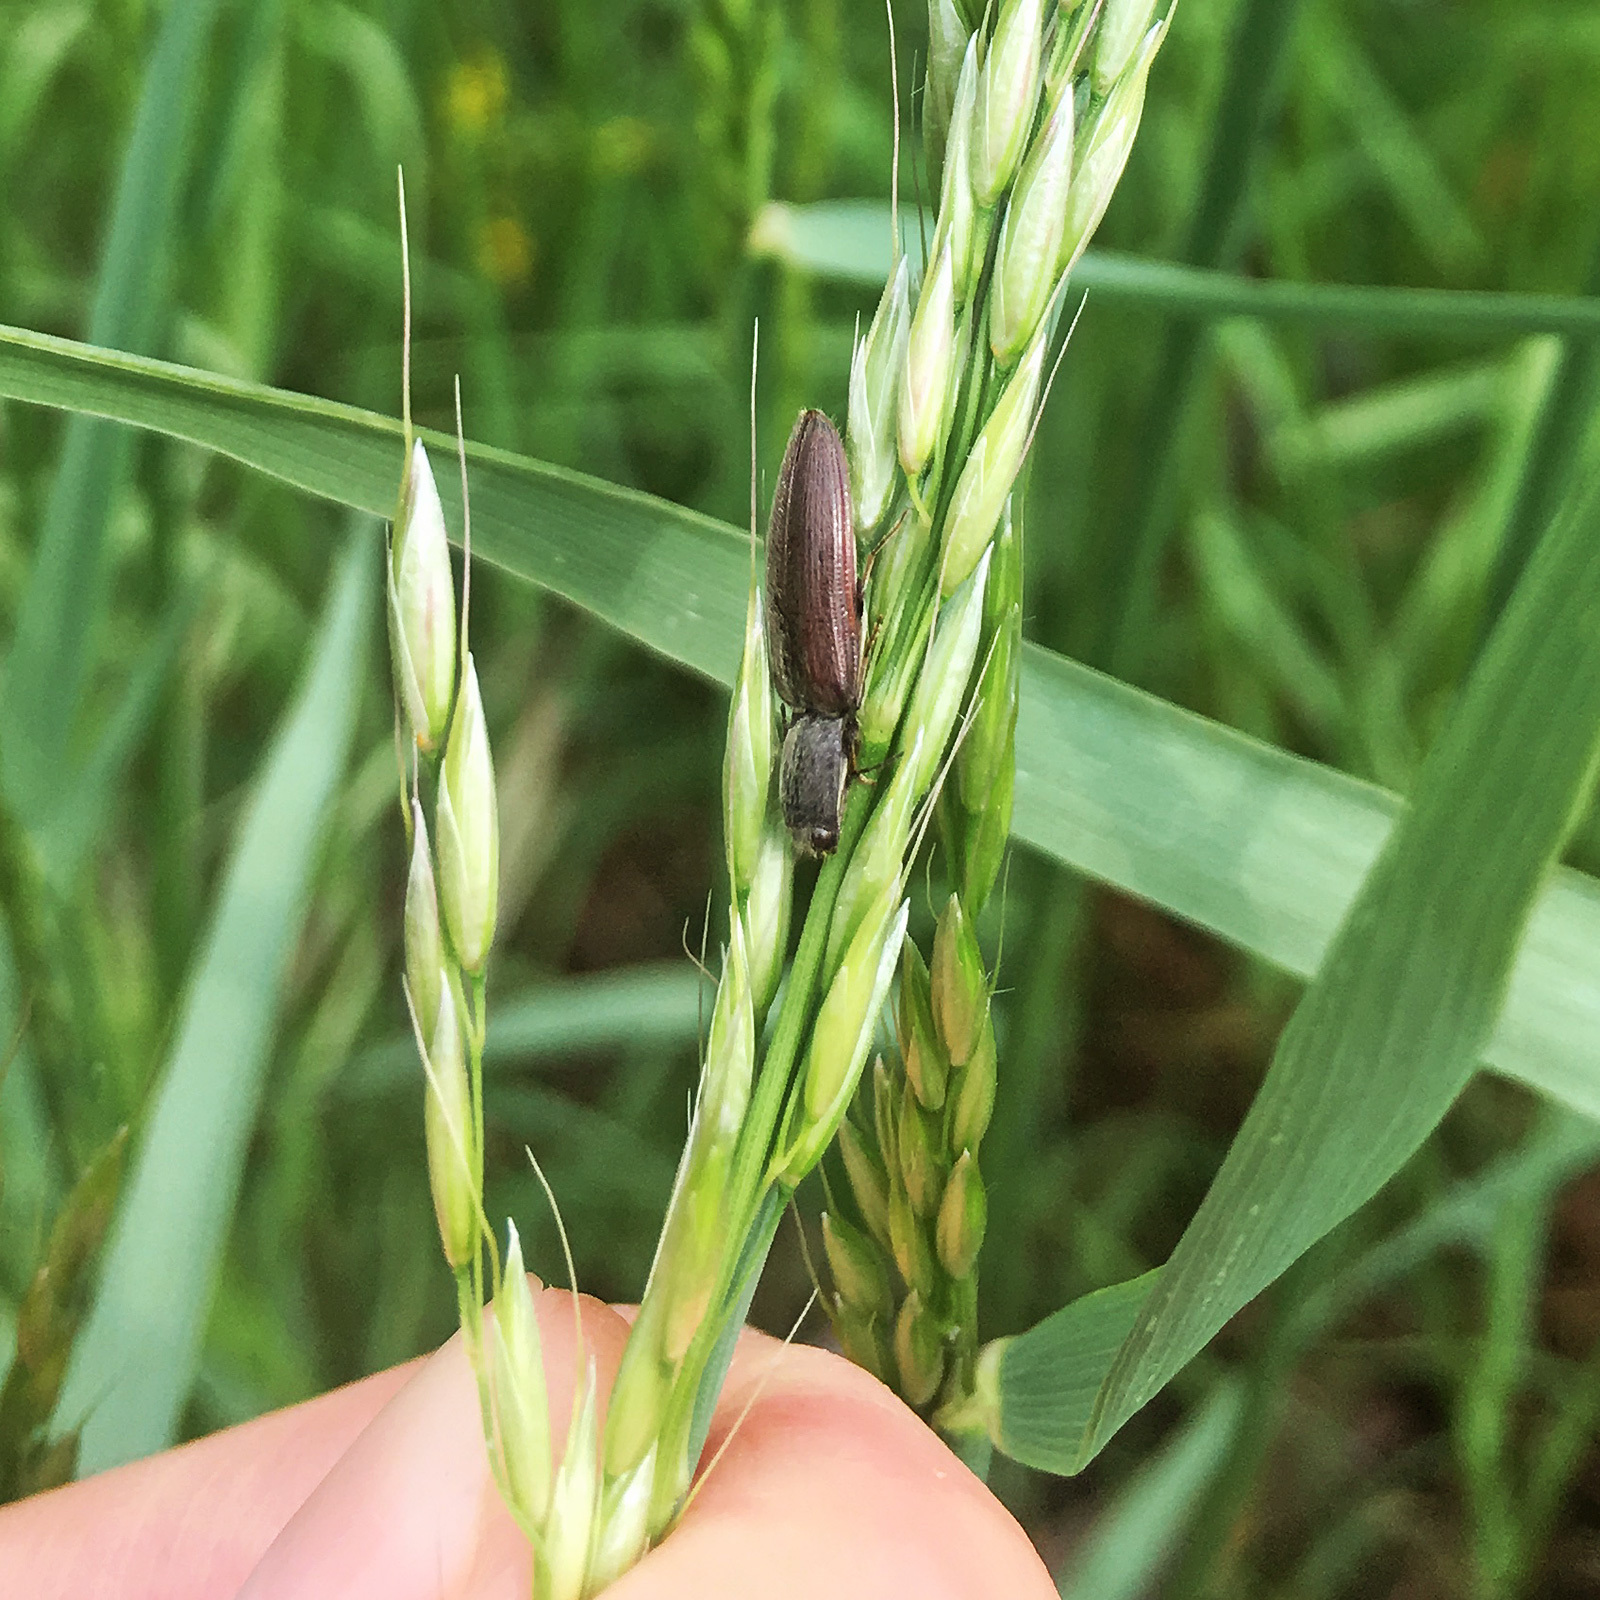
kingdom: Animalia
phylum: Arthropoda
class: Insecta
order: Coleoptera
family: Elateridae
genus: Athous
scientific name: Athous haemorrhoidalis
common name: Red-brown click beetle
